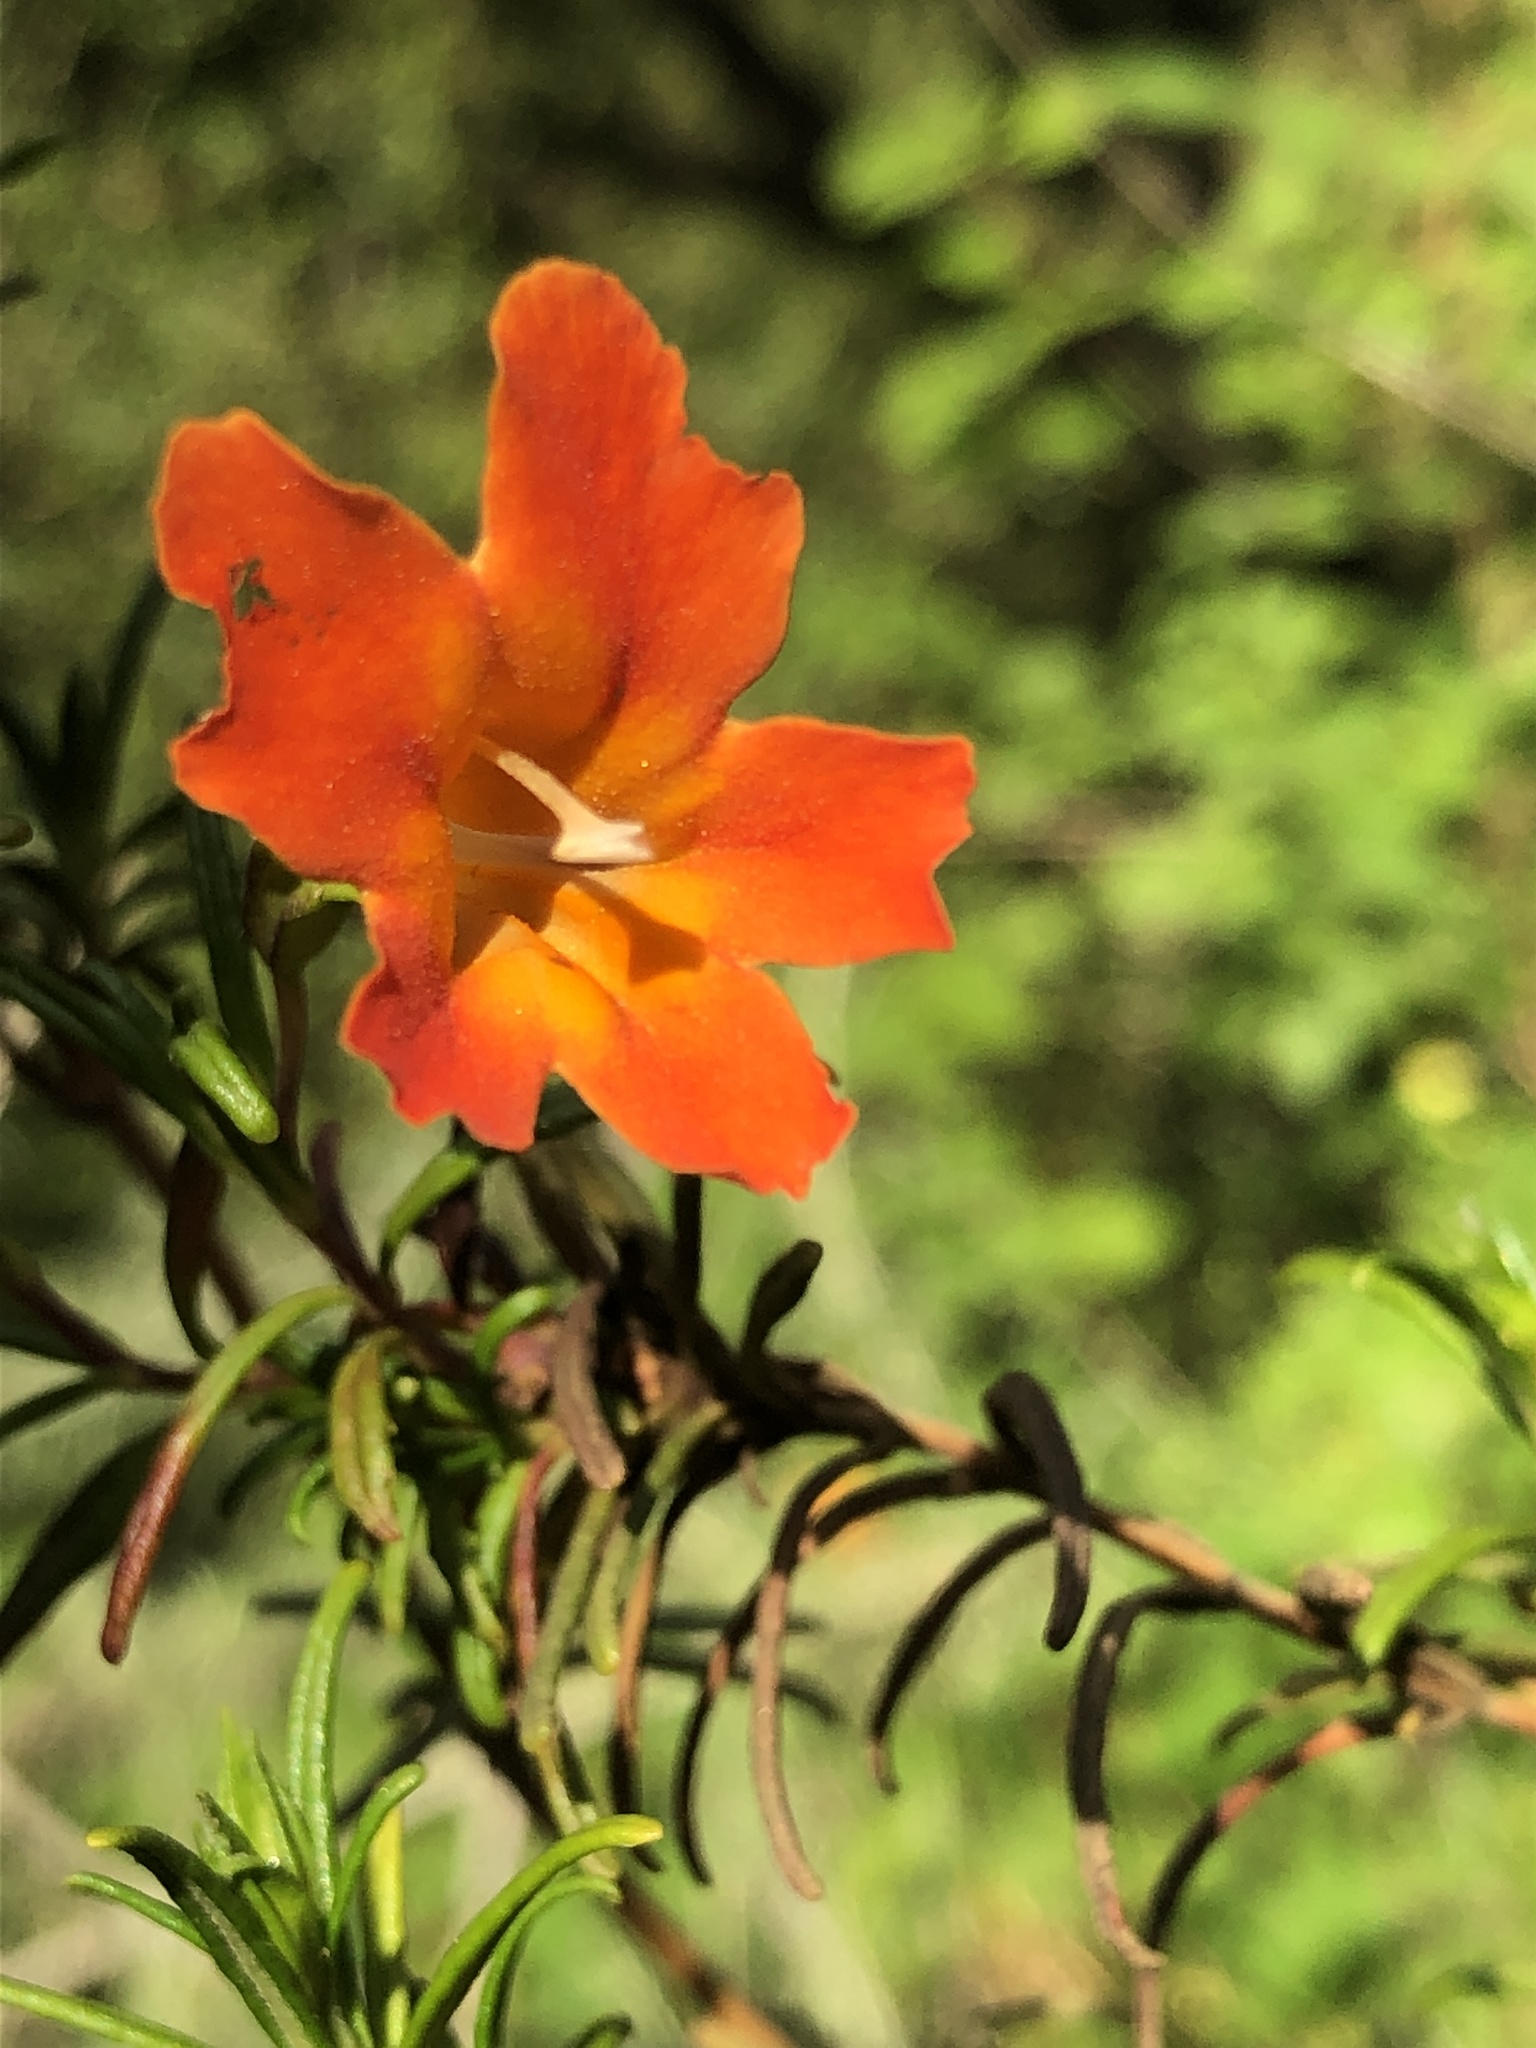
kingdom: Plantae
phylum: Tracheophyta
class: Magnoliopsida
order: Lamiales
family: Phrymaceae
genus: Diplacus
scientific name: Diplacus puniceus
